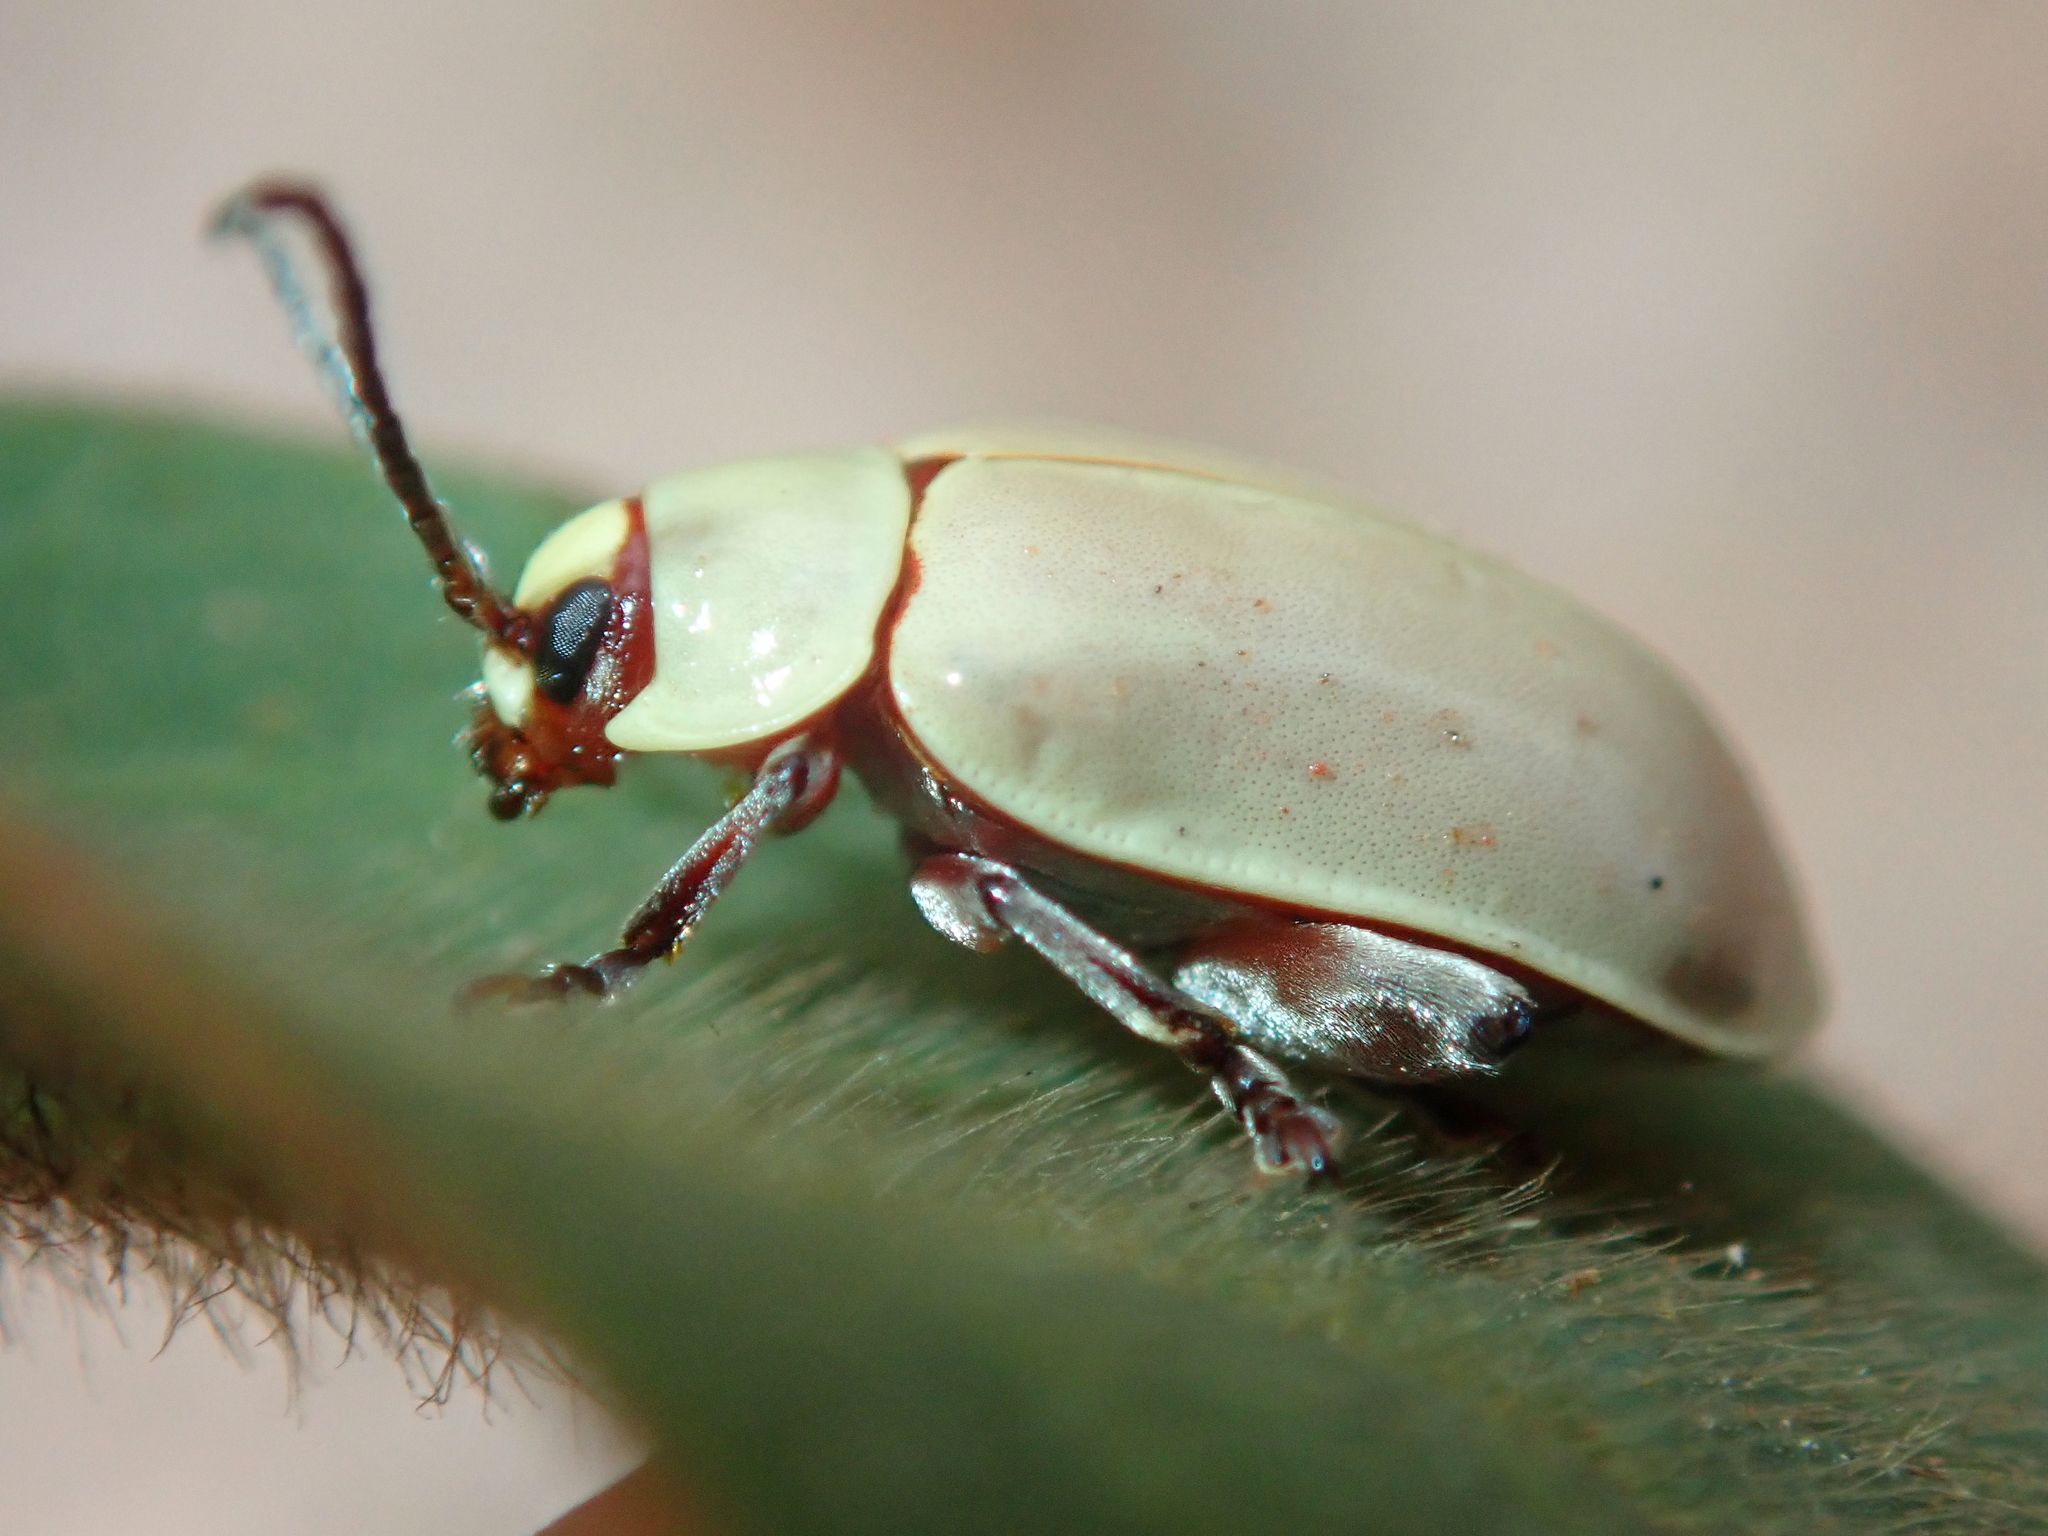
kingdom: Animalia
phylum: Arthropoda
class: Insecta
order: Coleoptera
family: Chrysomelidae
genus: Omophoita
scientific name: Omophoita
